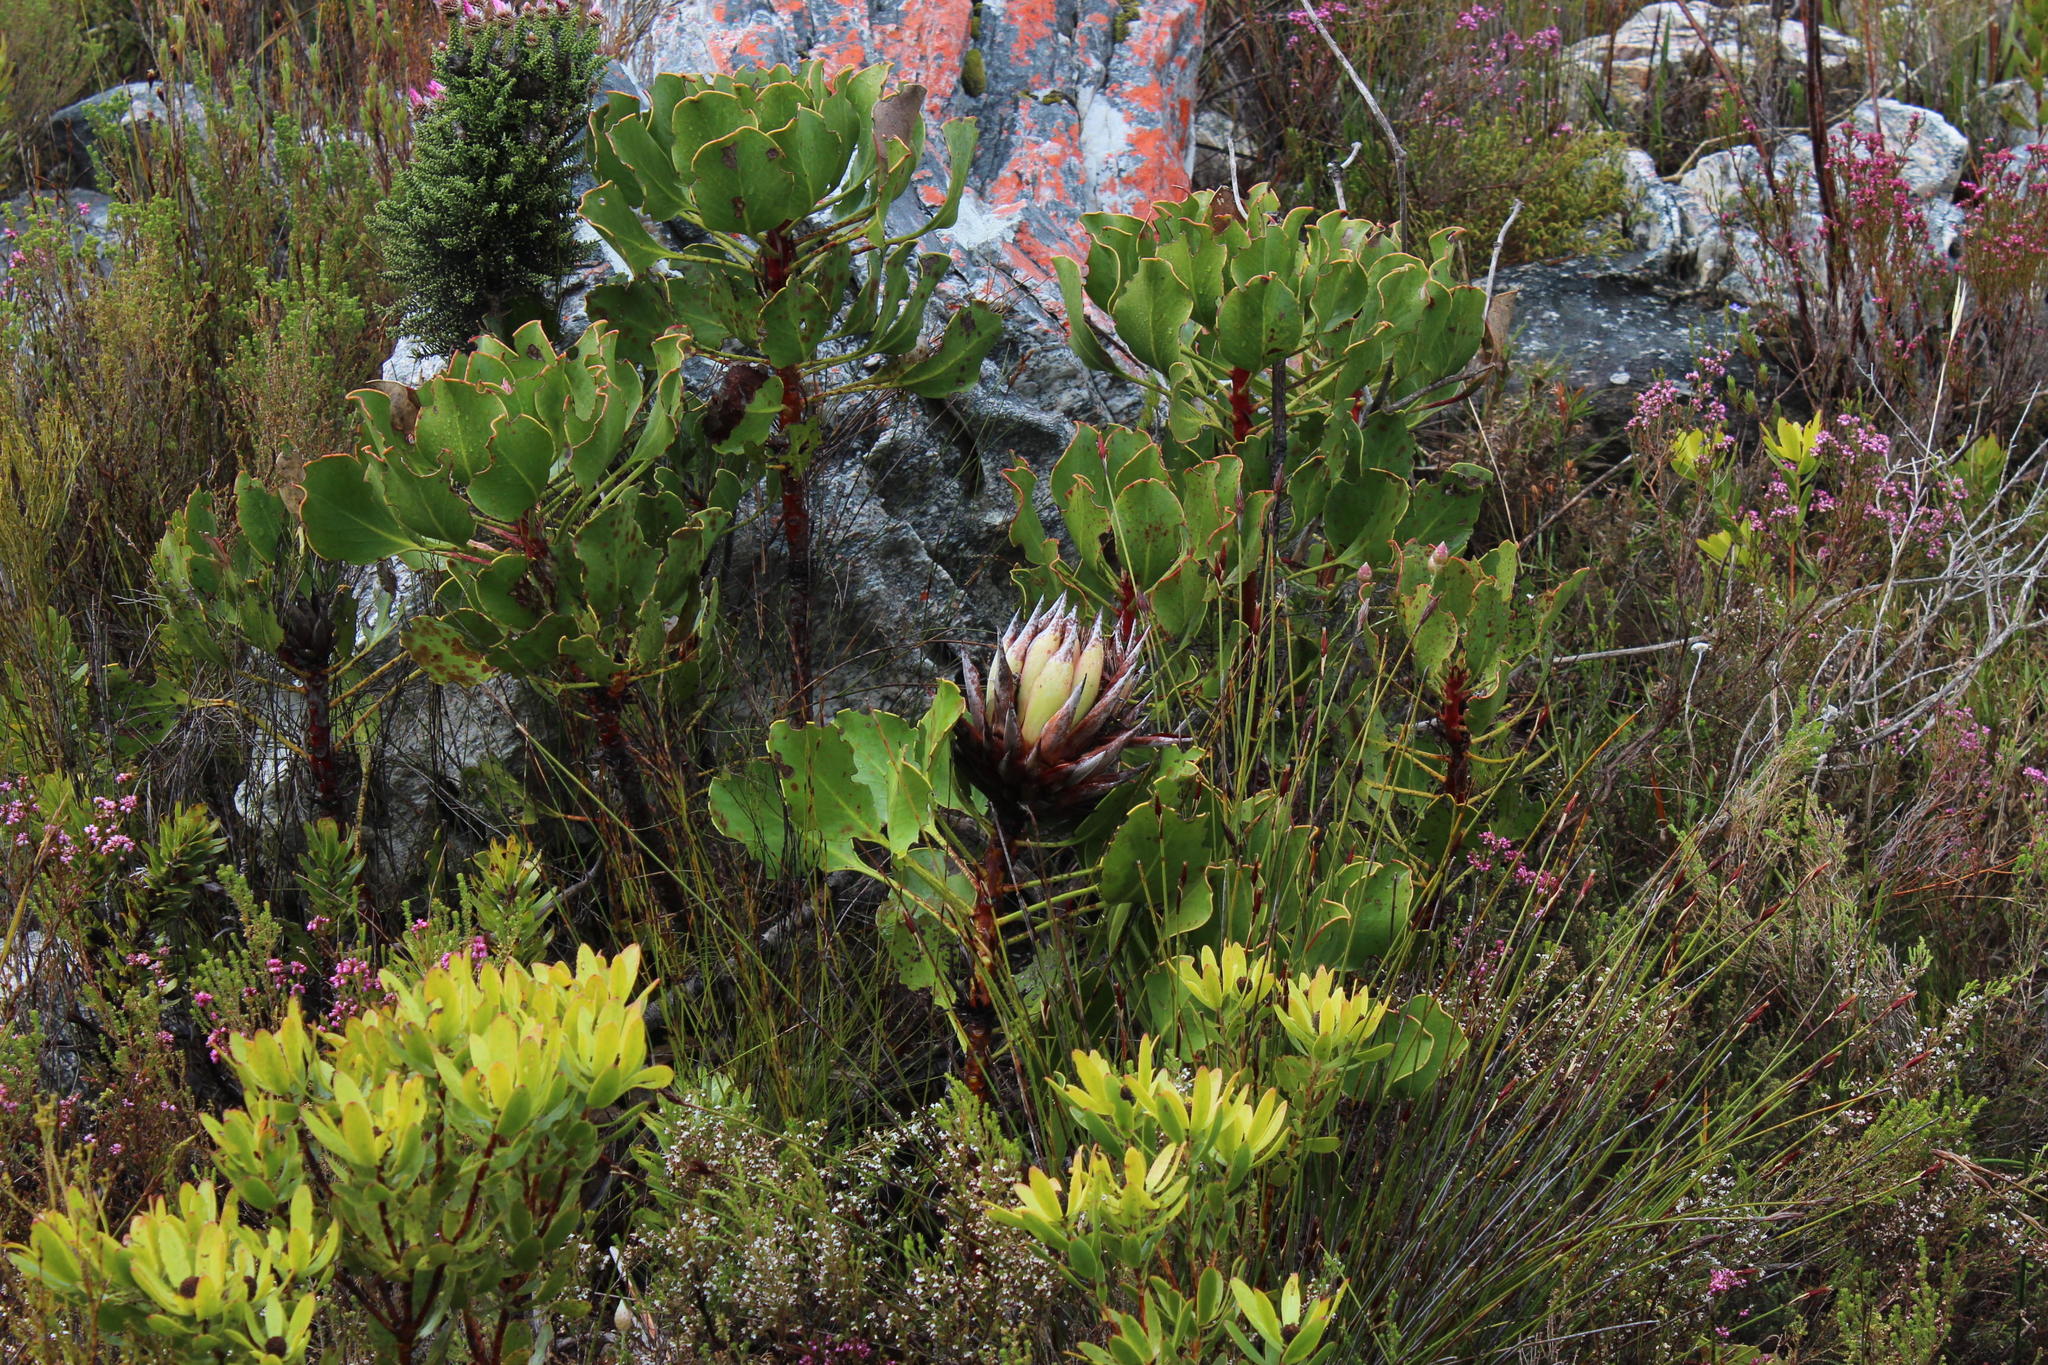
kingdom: Plantae
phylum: Tracheophyta
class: Magnoliopsida
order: Proteales
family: Proteaceae
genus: Protea
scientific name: Protea cynaroides
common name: King protea
